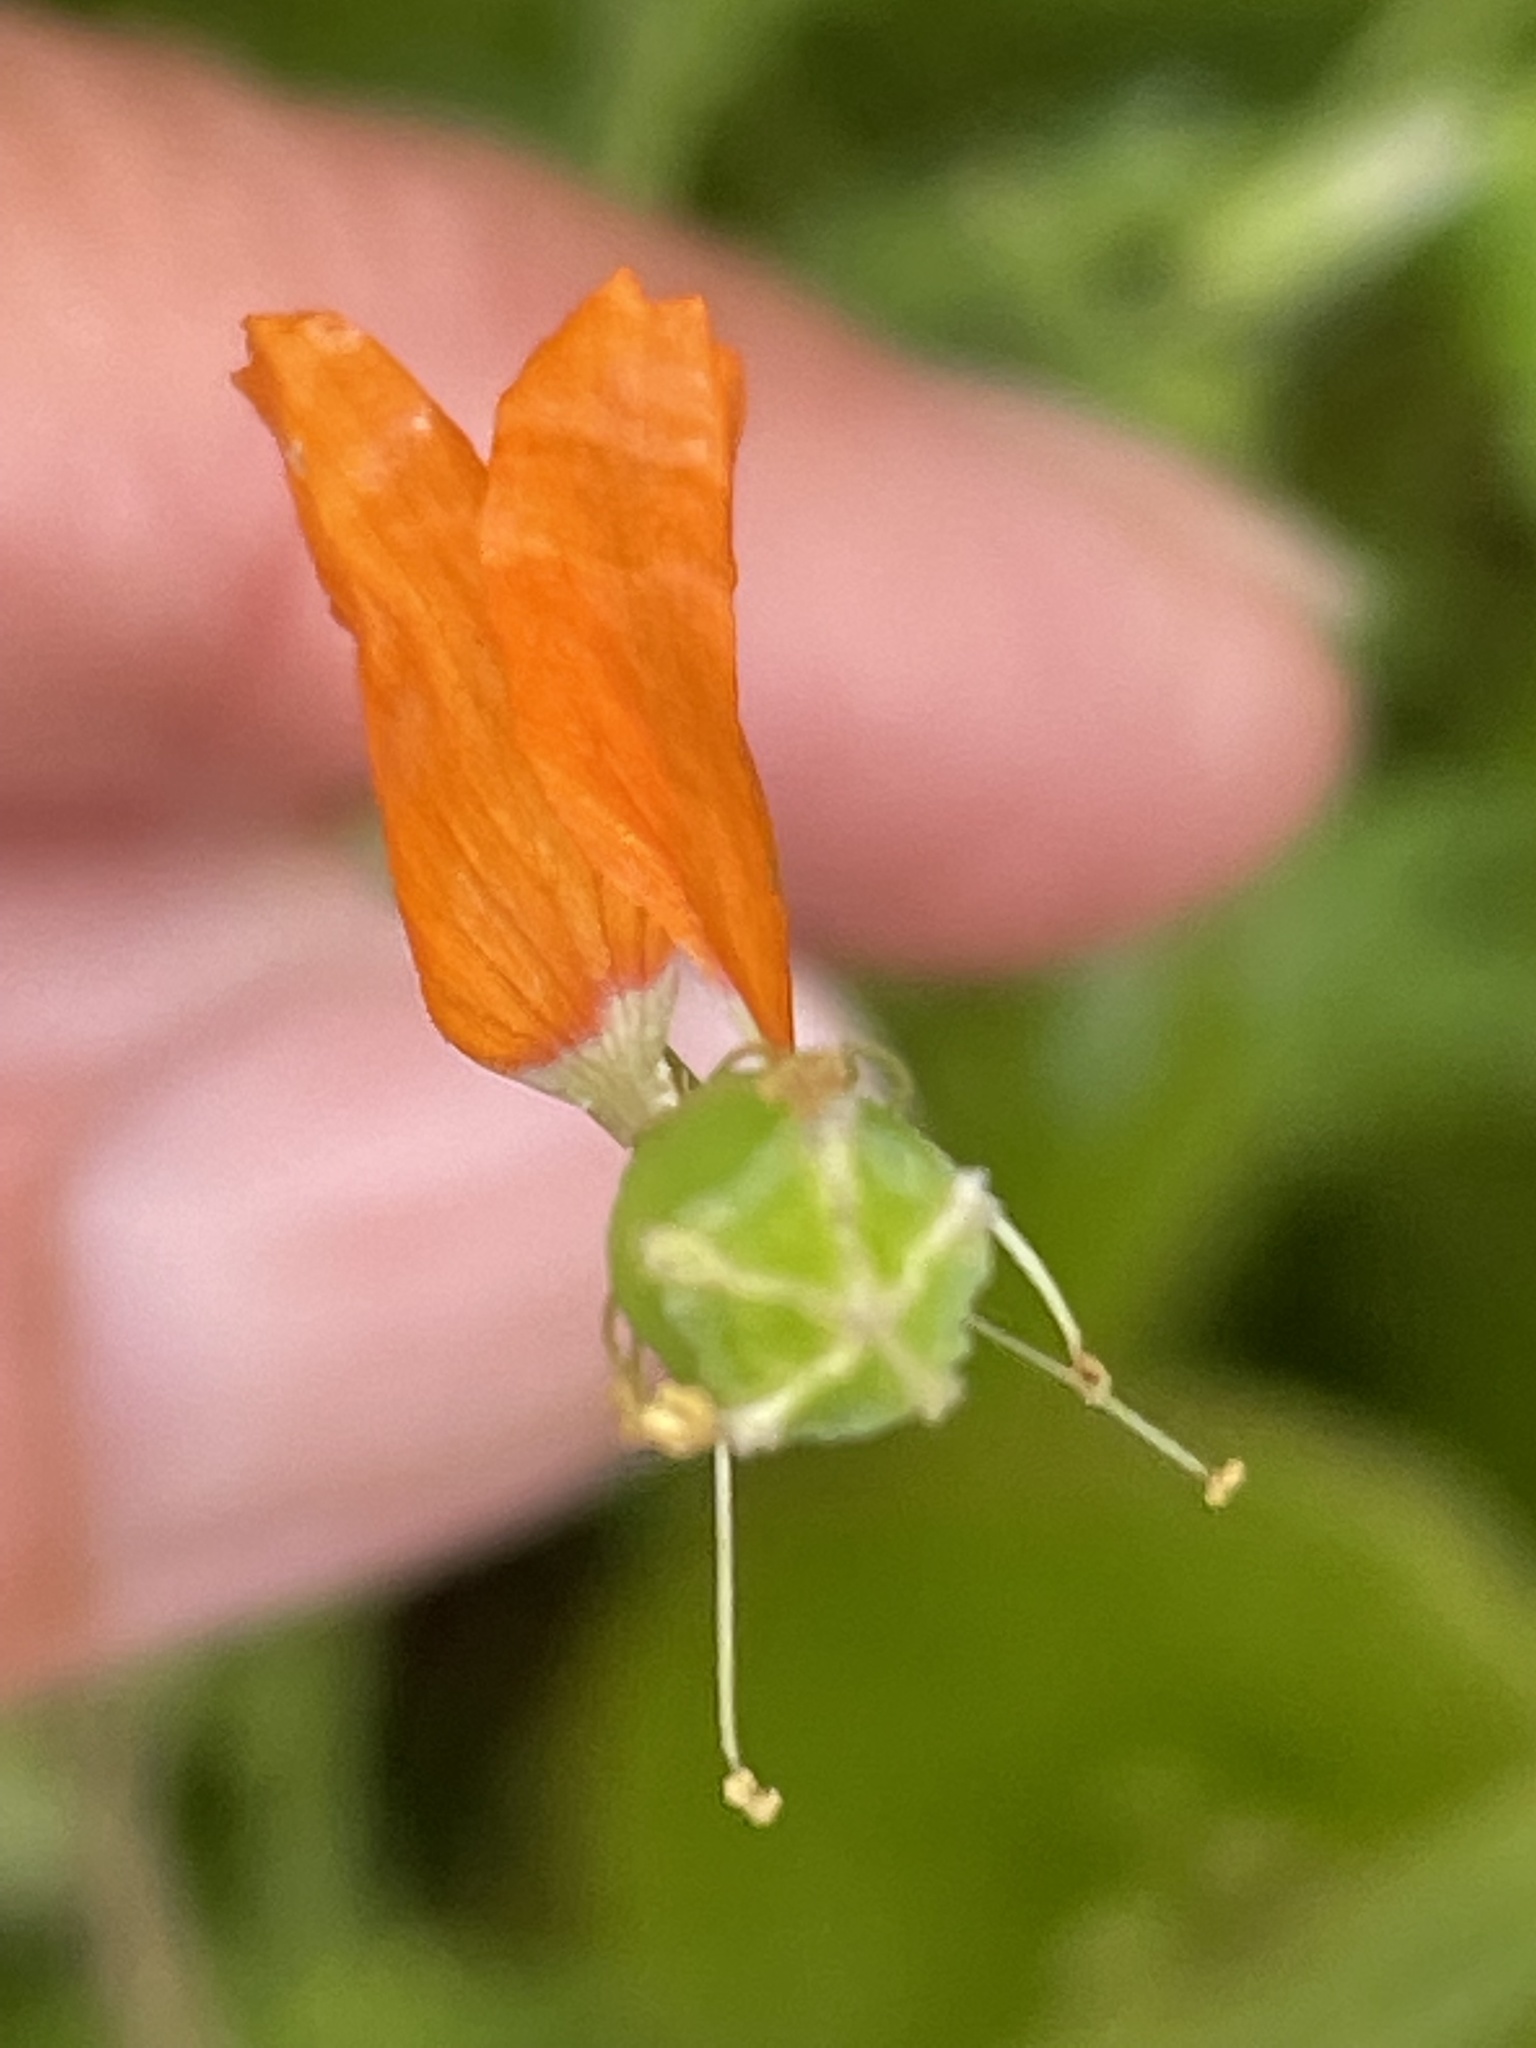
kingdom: Plantae
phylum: Tracheophyta
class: Magnoliopsida
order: Ranunculales
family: Papaveraceae
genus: Papaver
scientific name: Papaver californicum
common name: Fire poppy
